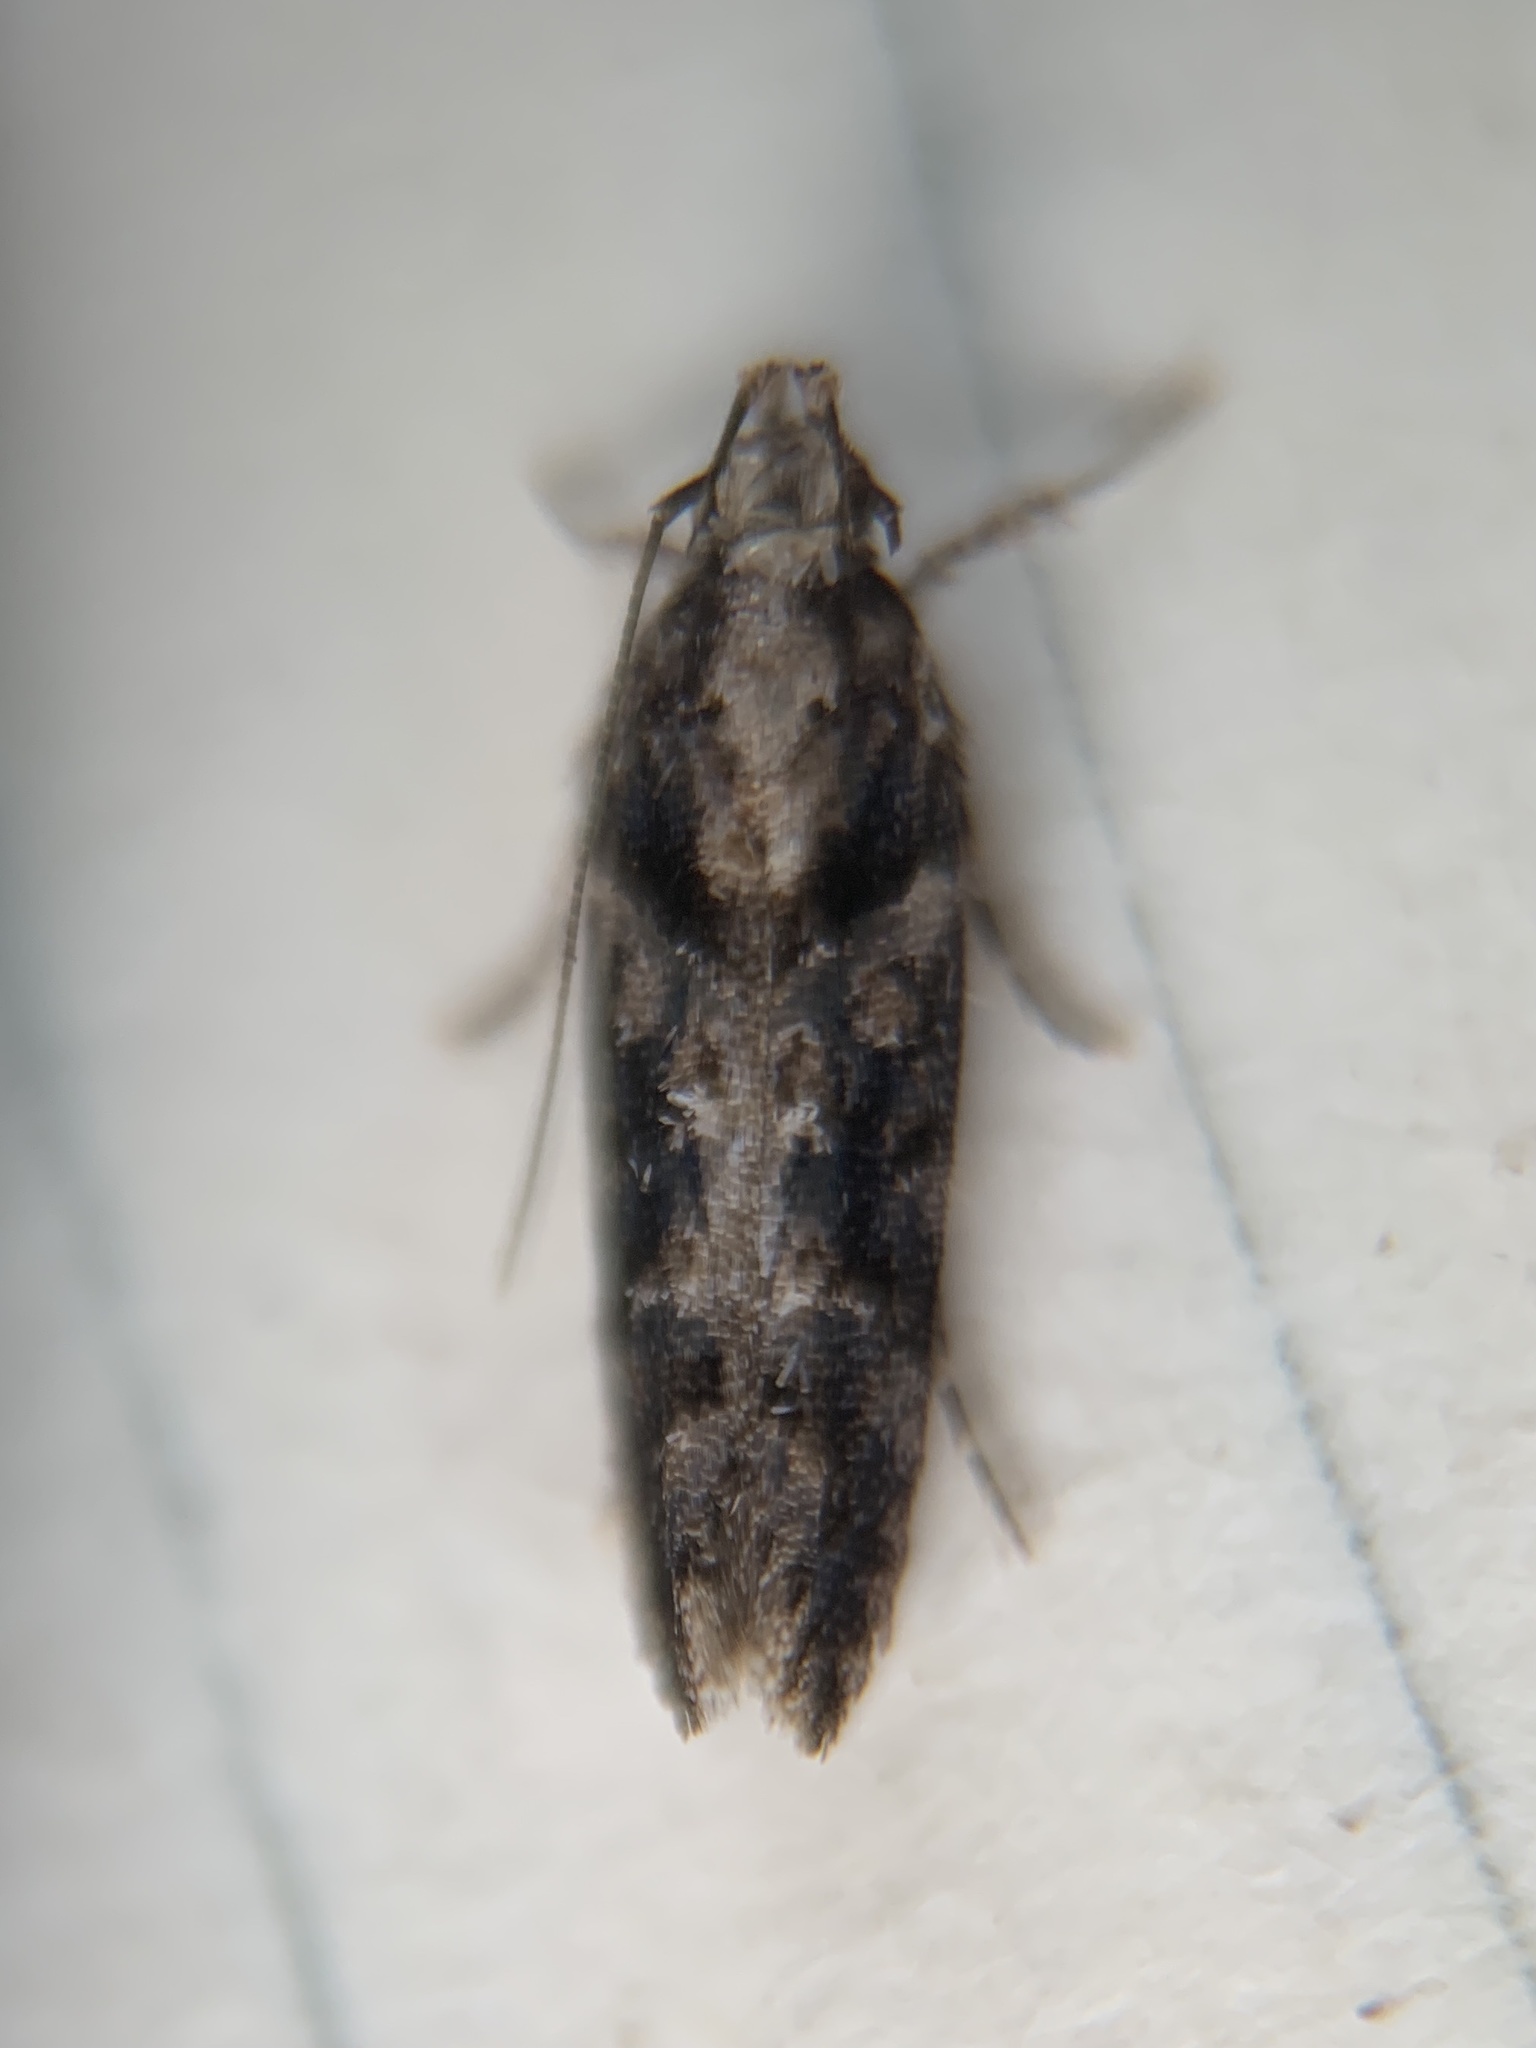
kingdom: Animalia
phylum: Arthropoda
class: Insecta
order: Lepidoptera
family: Gelechiidae
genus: Telphusa
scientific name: Telphusa perspicua
